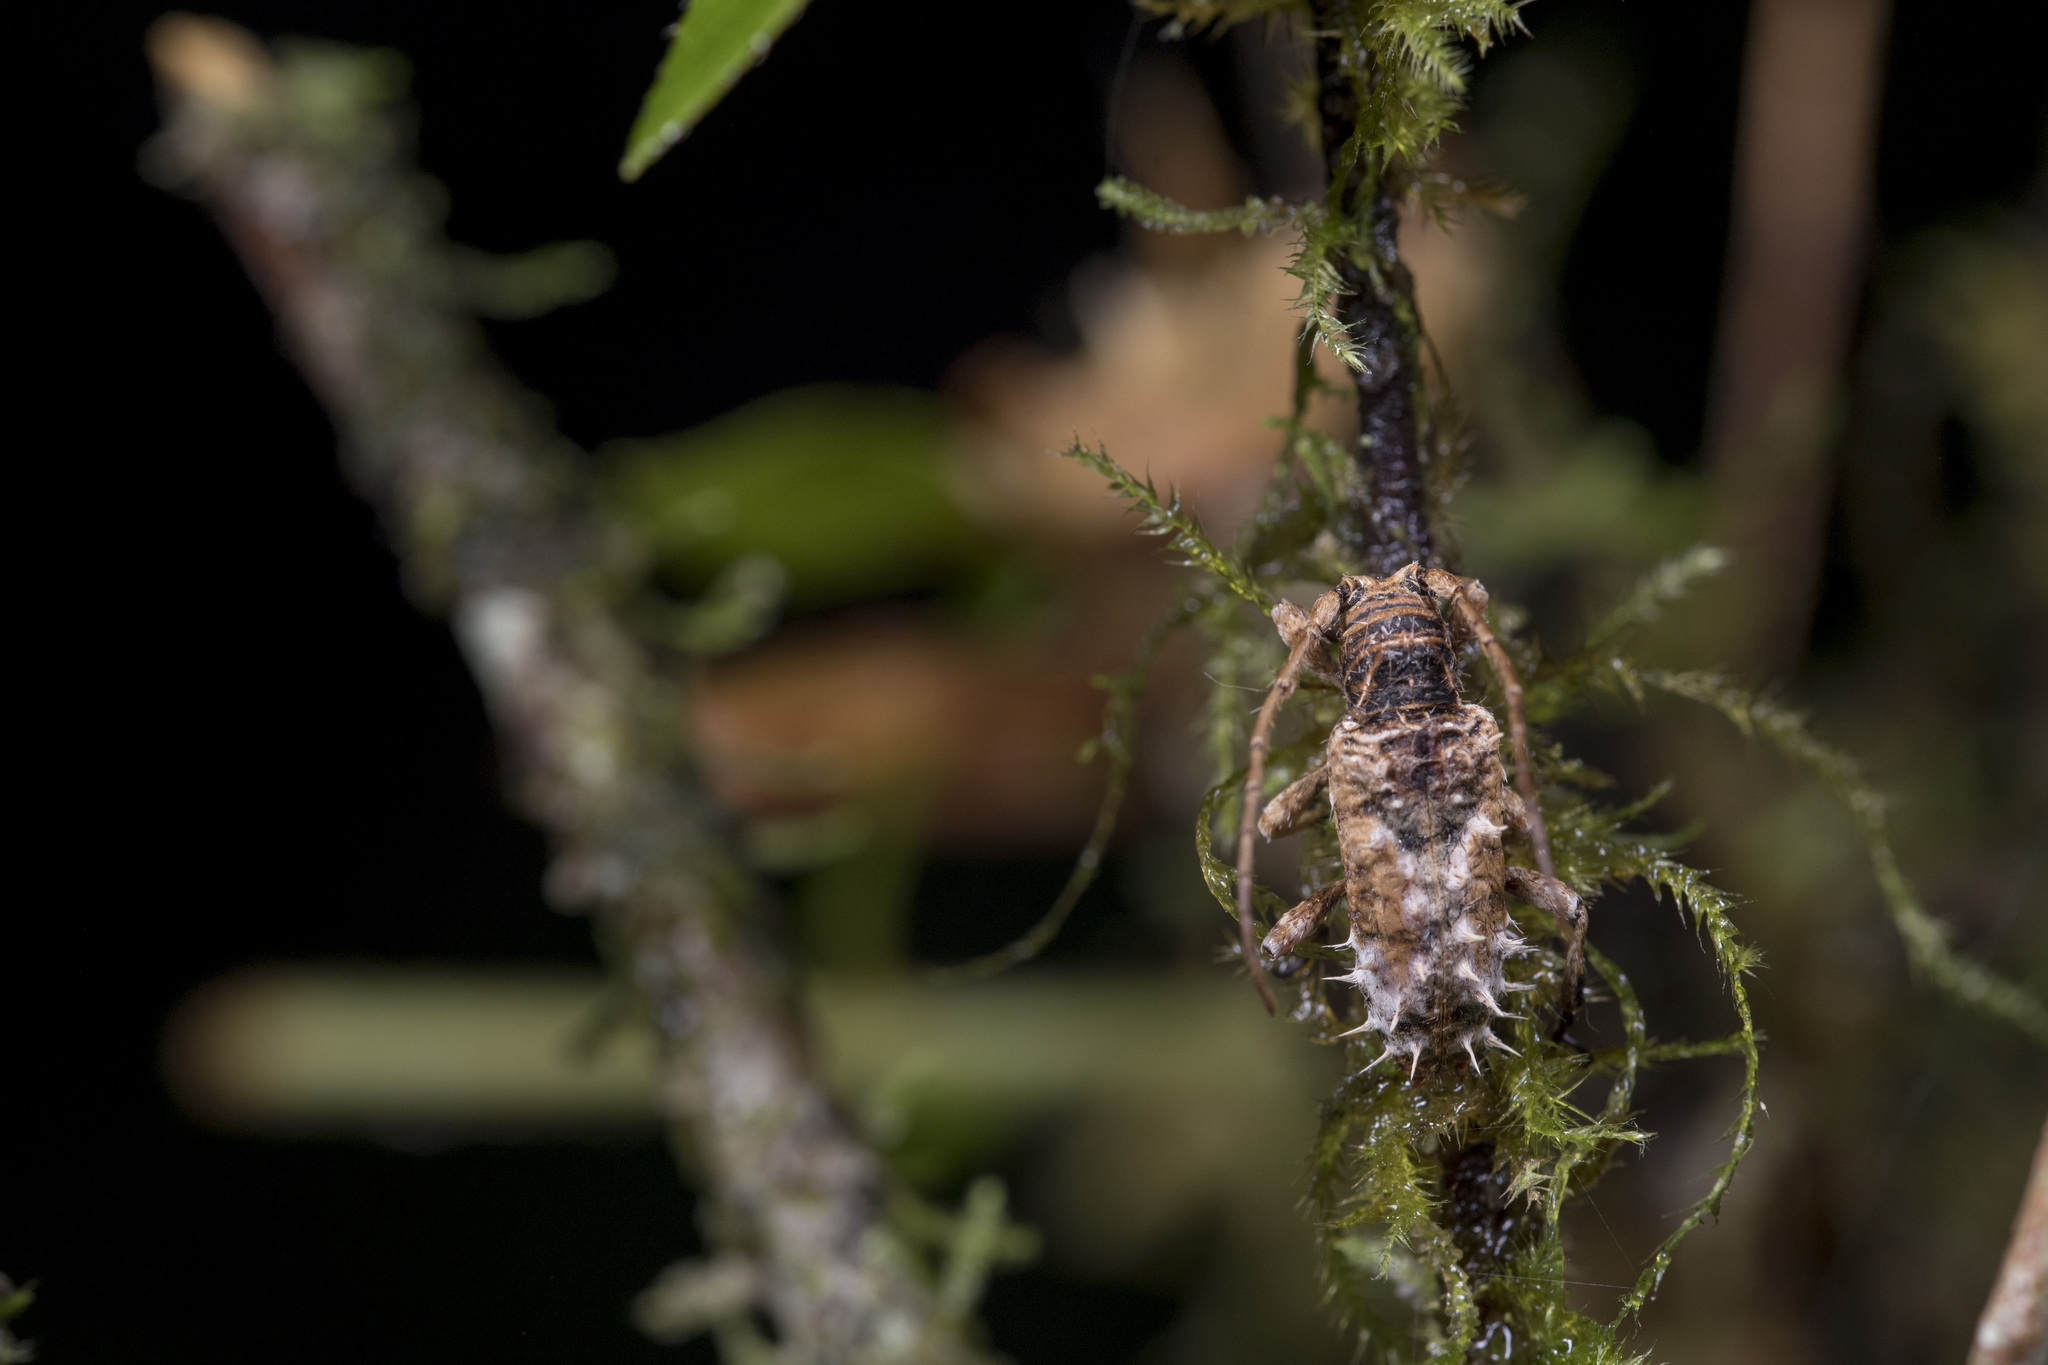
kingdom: Animalia
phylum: Arthropoda
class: Insecta
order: Coleoptera
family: Cerambycidae
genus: Callomecyna
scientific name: Callomecyna leehsuehae
